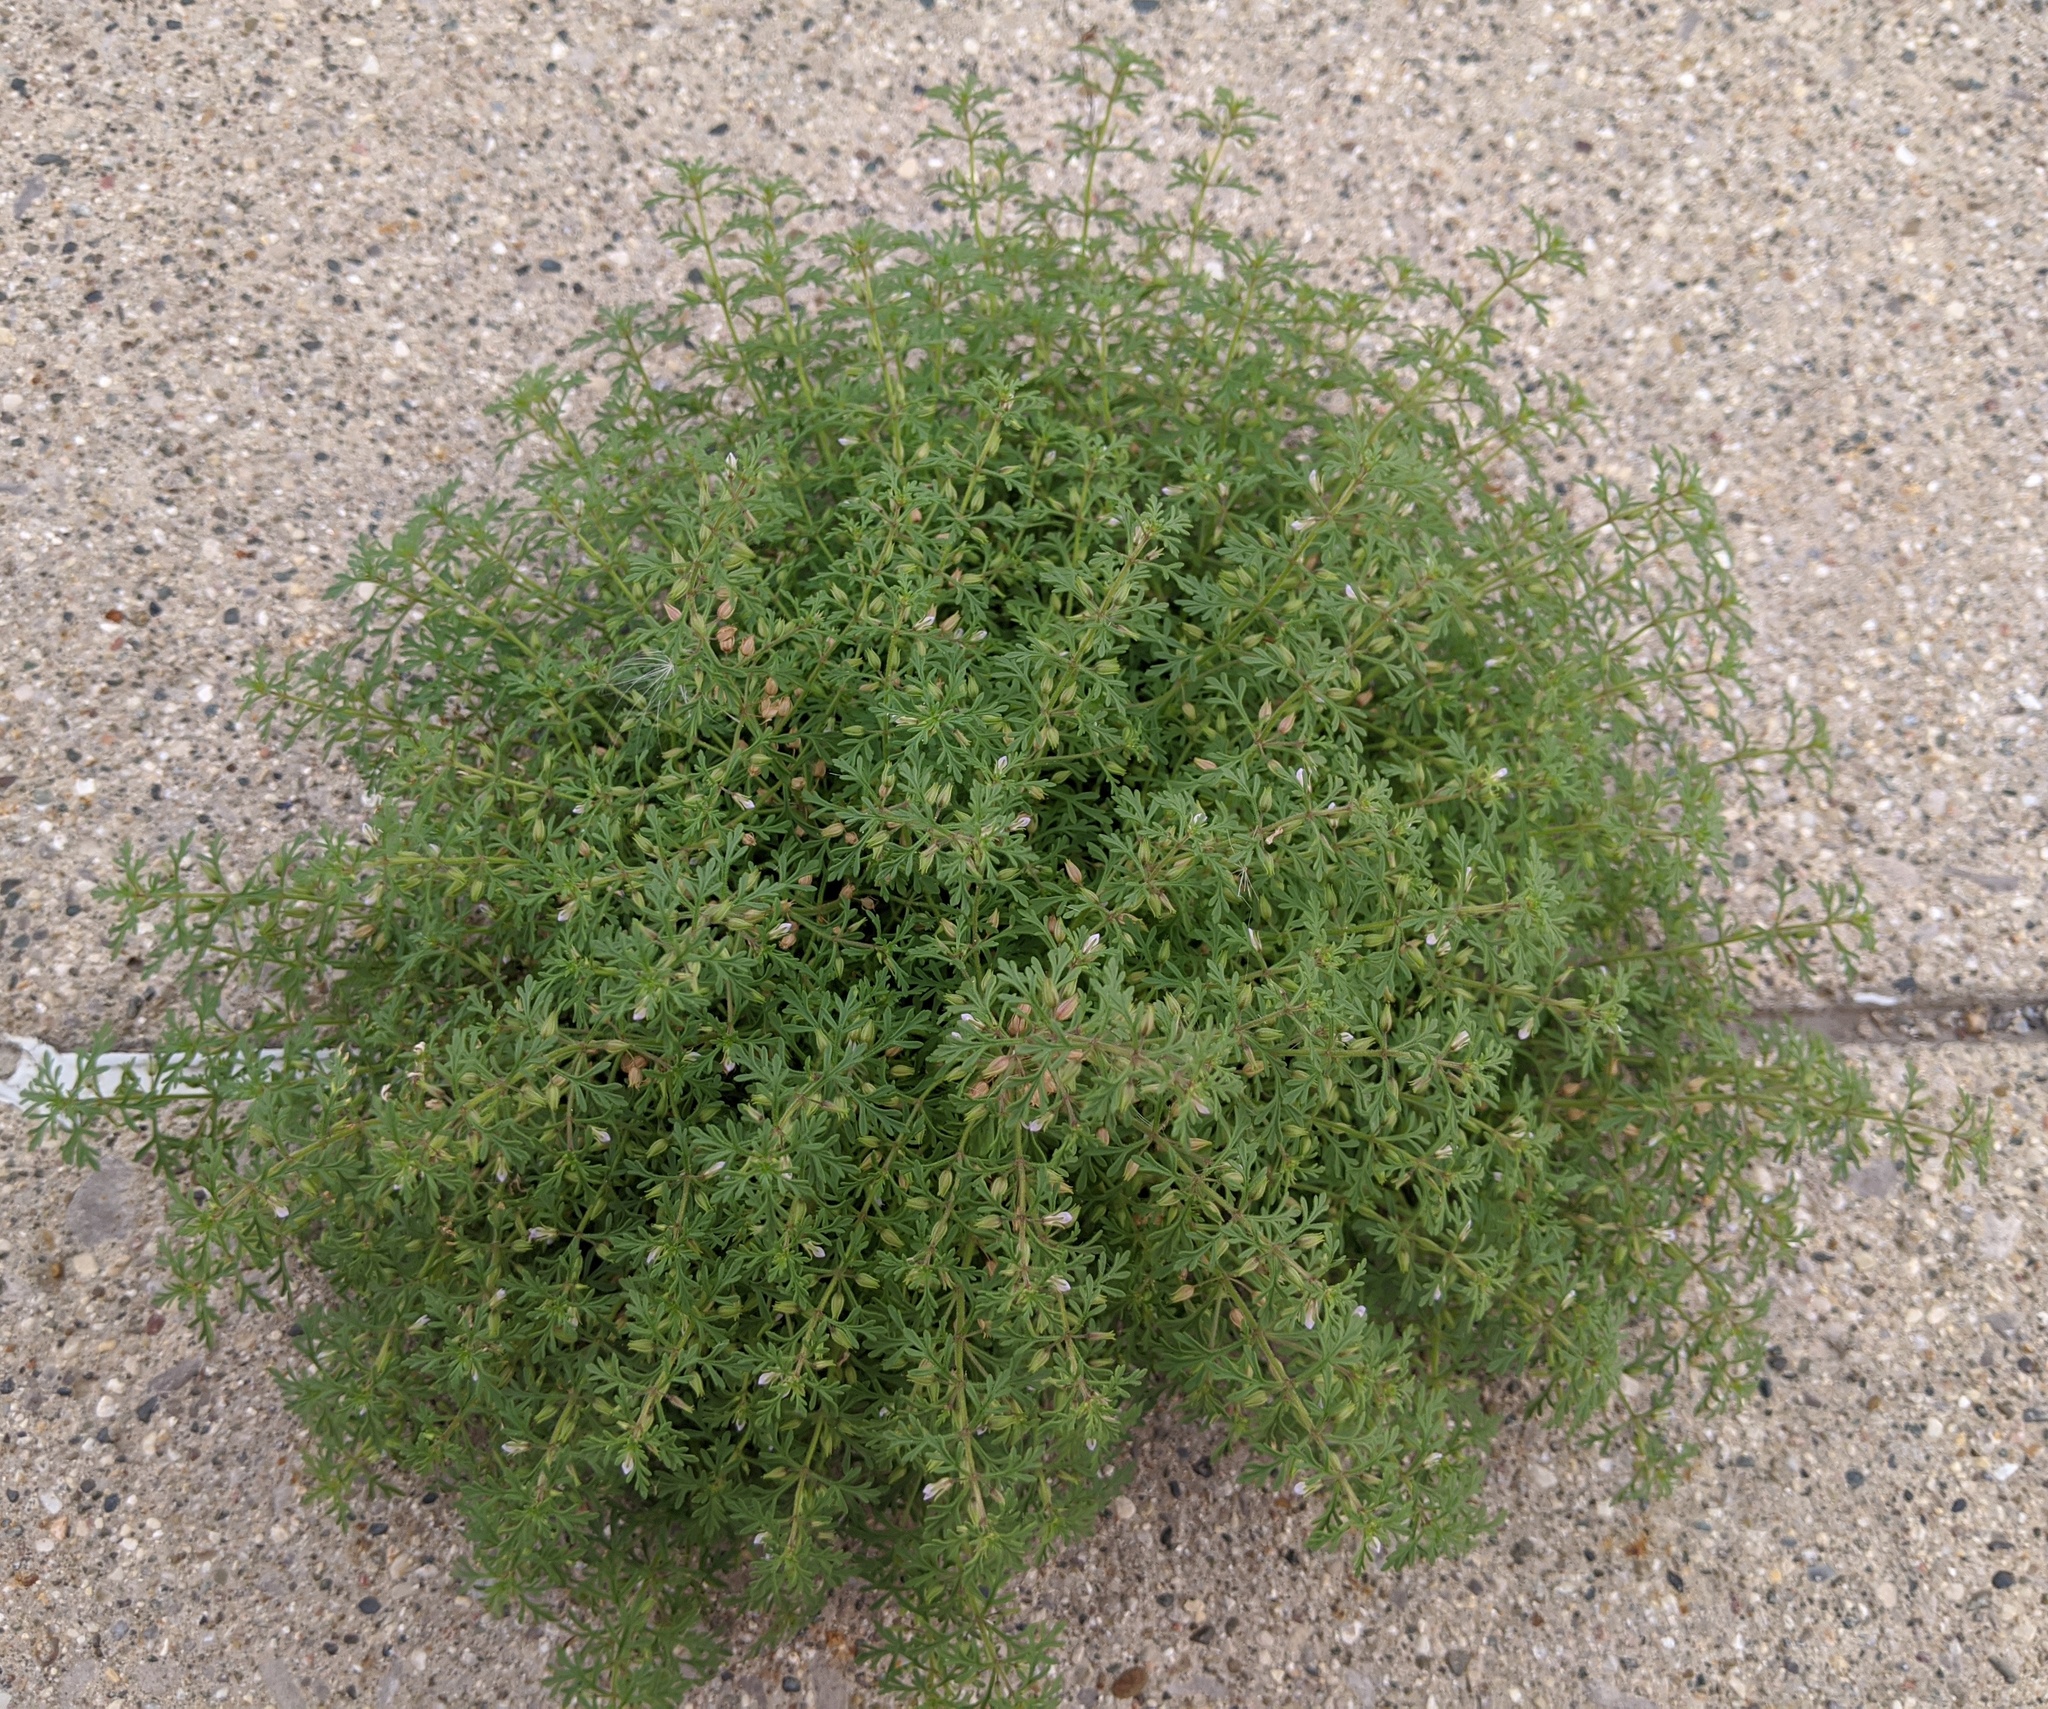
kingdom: Plantae
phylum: Tracheophyta
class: Magnoliopsida
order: Lamiales
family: Plantaginaceae
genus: Leucospora
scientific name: Leucospora multifida
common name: Narrow-leaf paleseed
